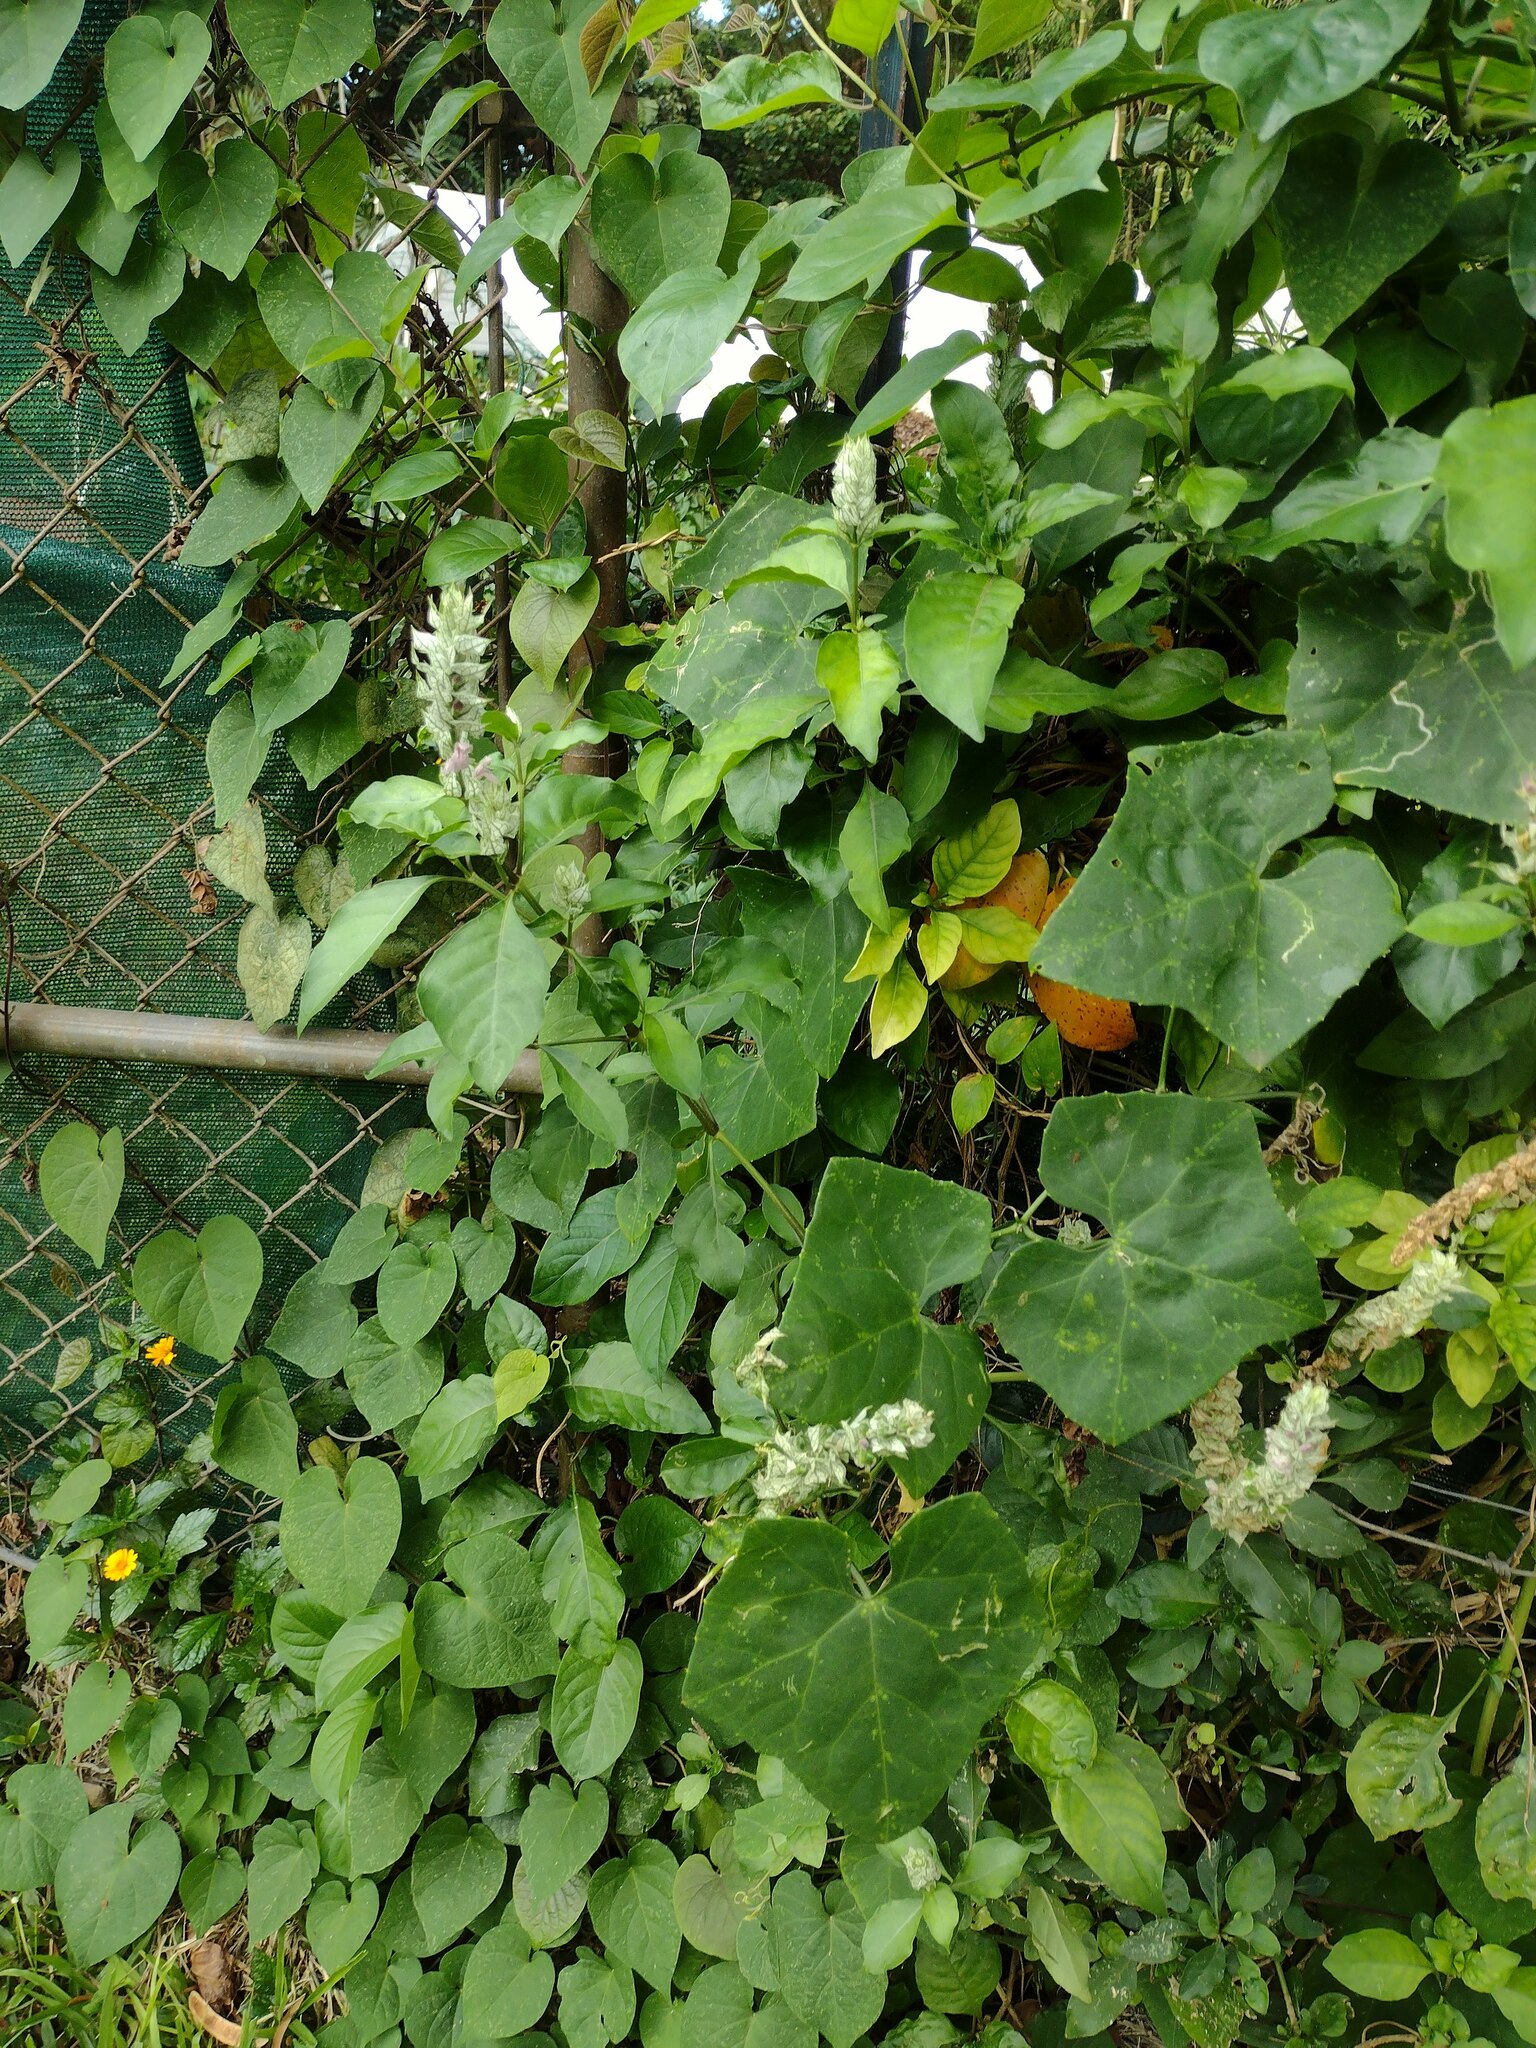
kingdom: Plantae
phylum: Tracheophyta
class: Magnoliopsida
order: Cucurbitales
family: Cucurbitaceae
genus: Coccinia
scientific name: Coccinia grandis
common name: Ivy gourd
